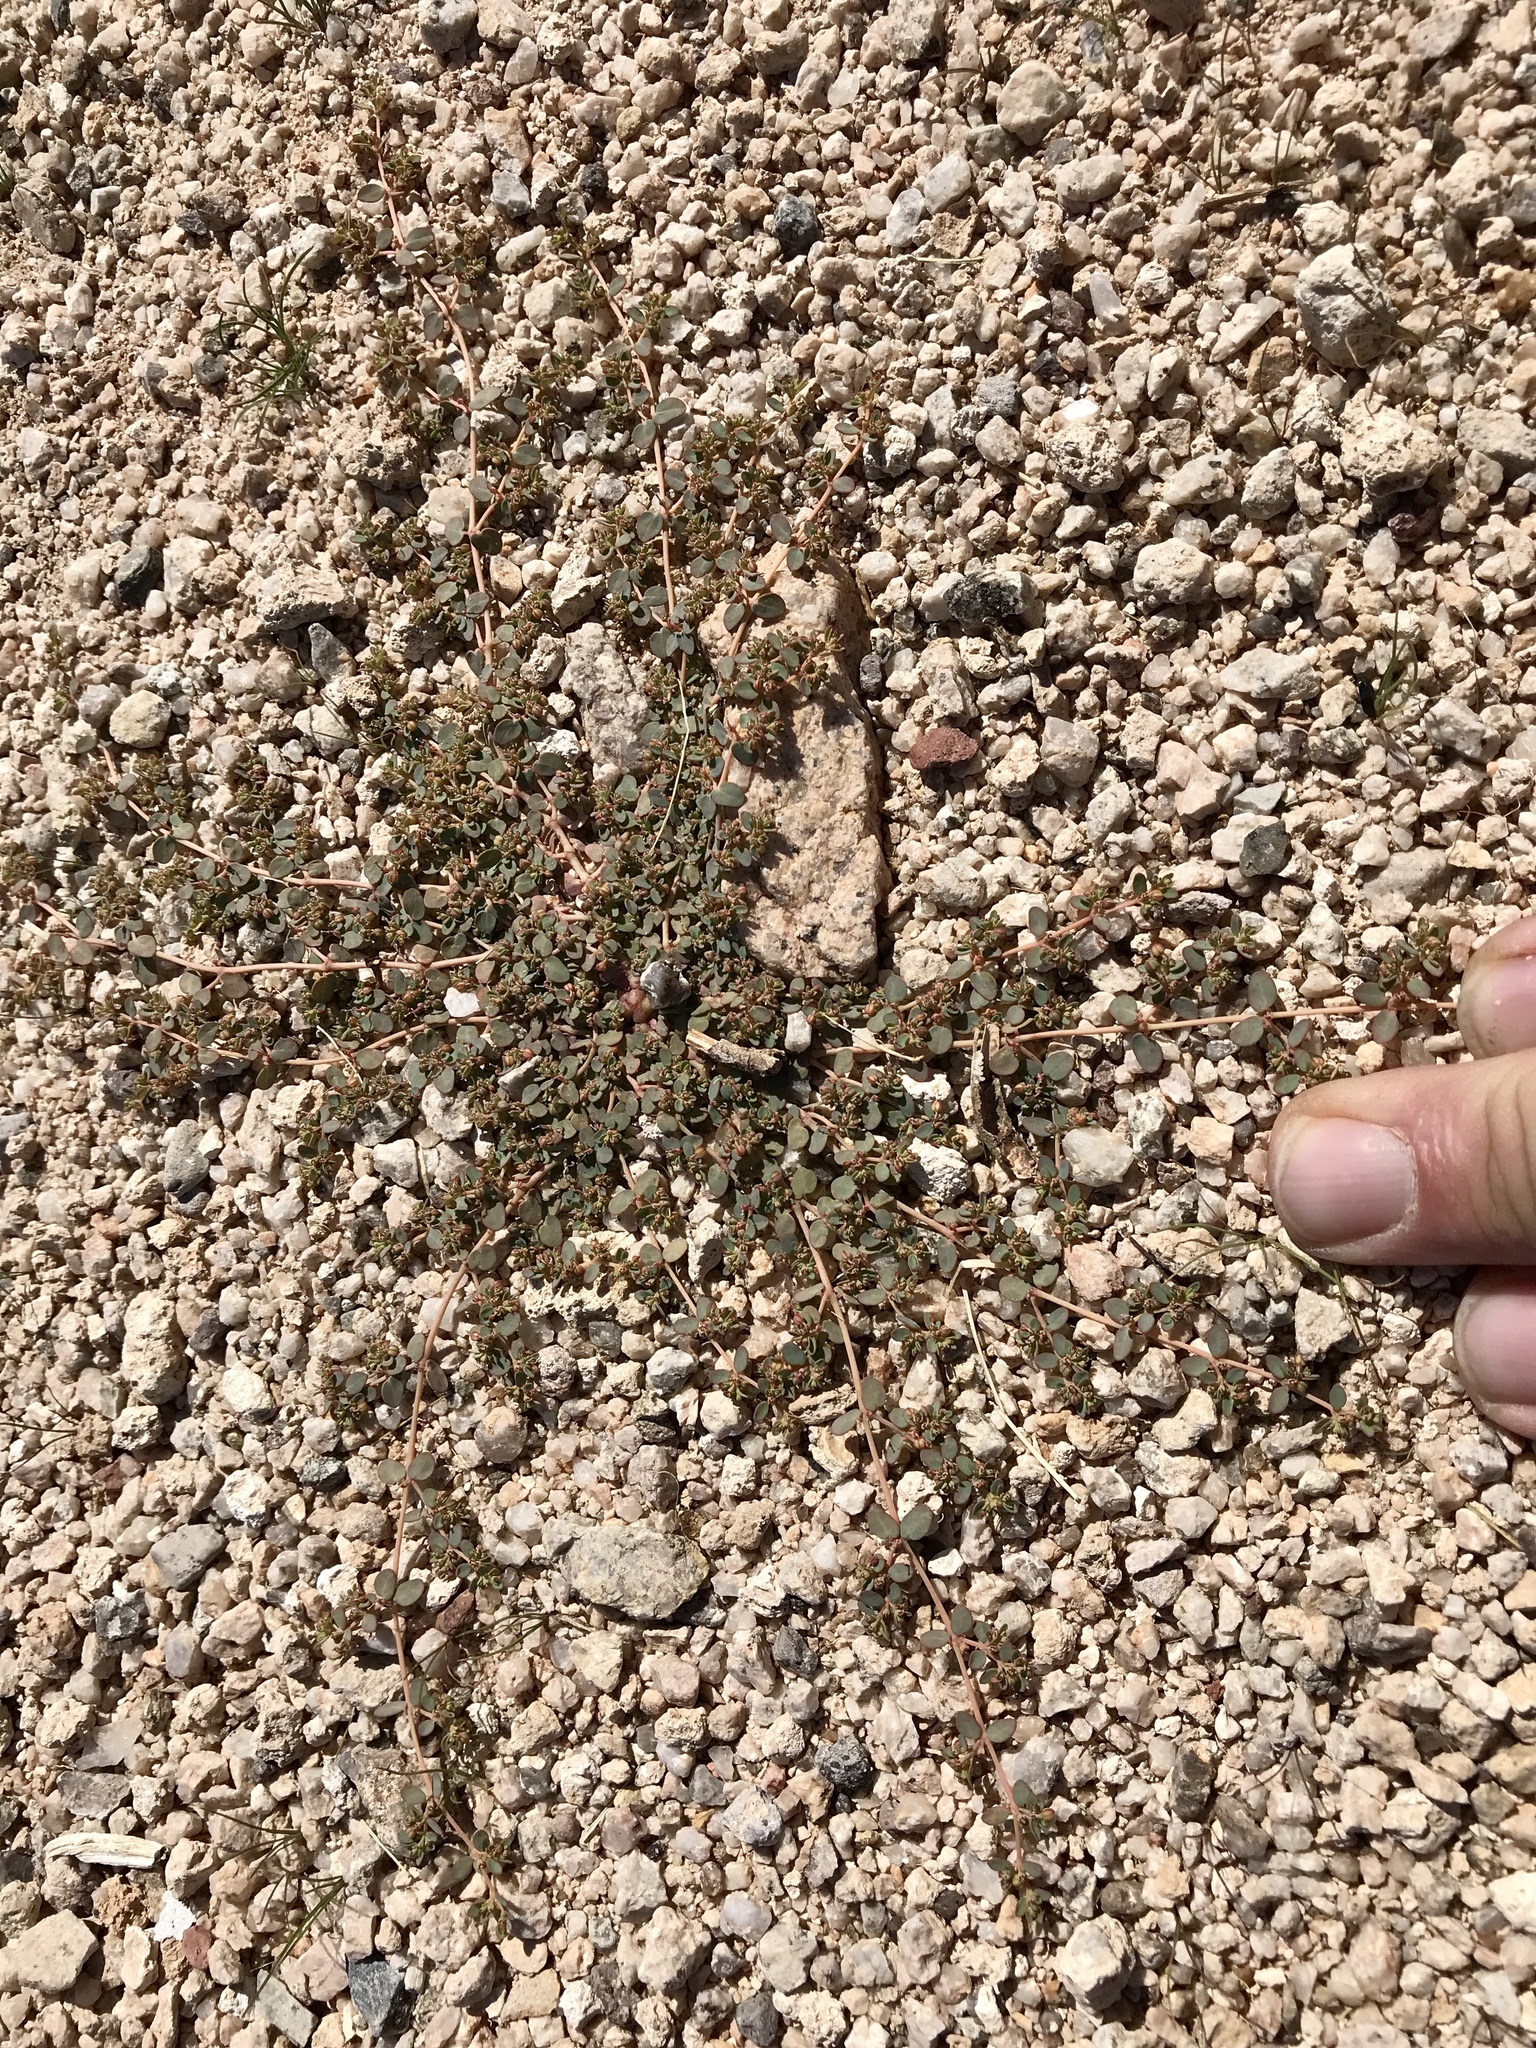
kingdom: Plantae
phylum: Tracheophyta
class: Magnoliopsida
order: Malpighiales
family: Euphorbiaceae
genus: Euphorbia
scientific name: Euphorbia micromera
